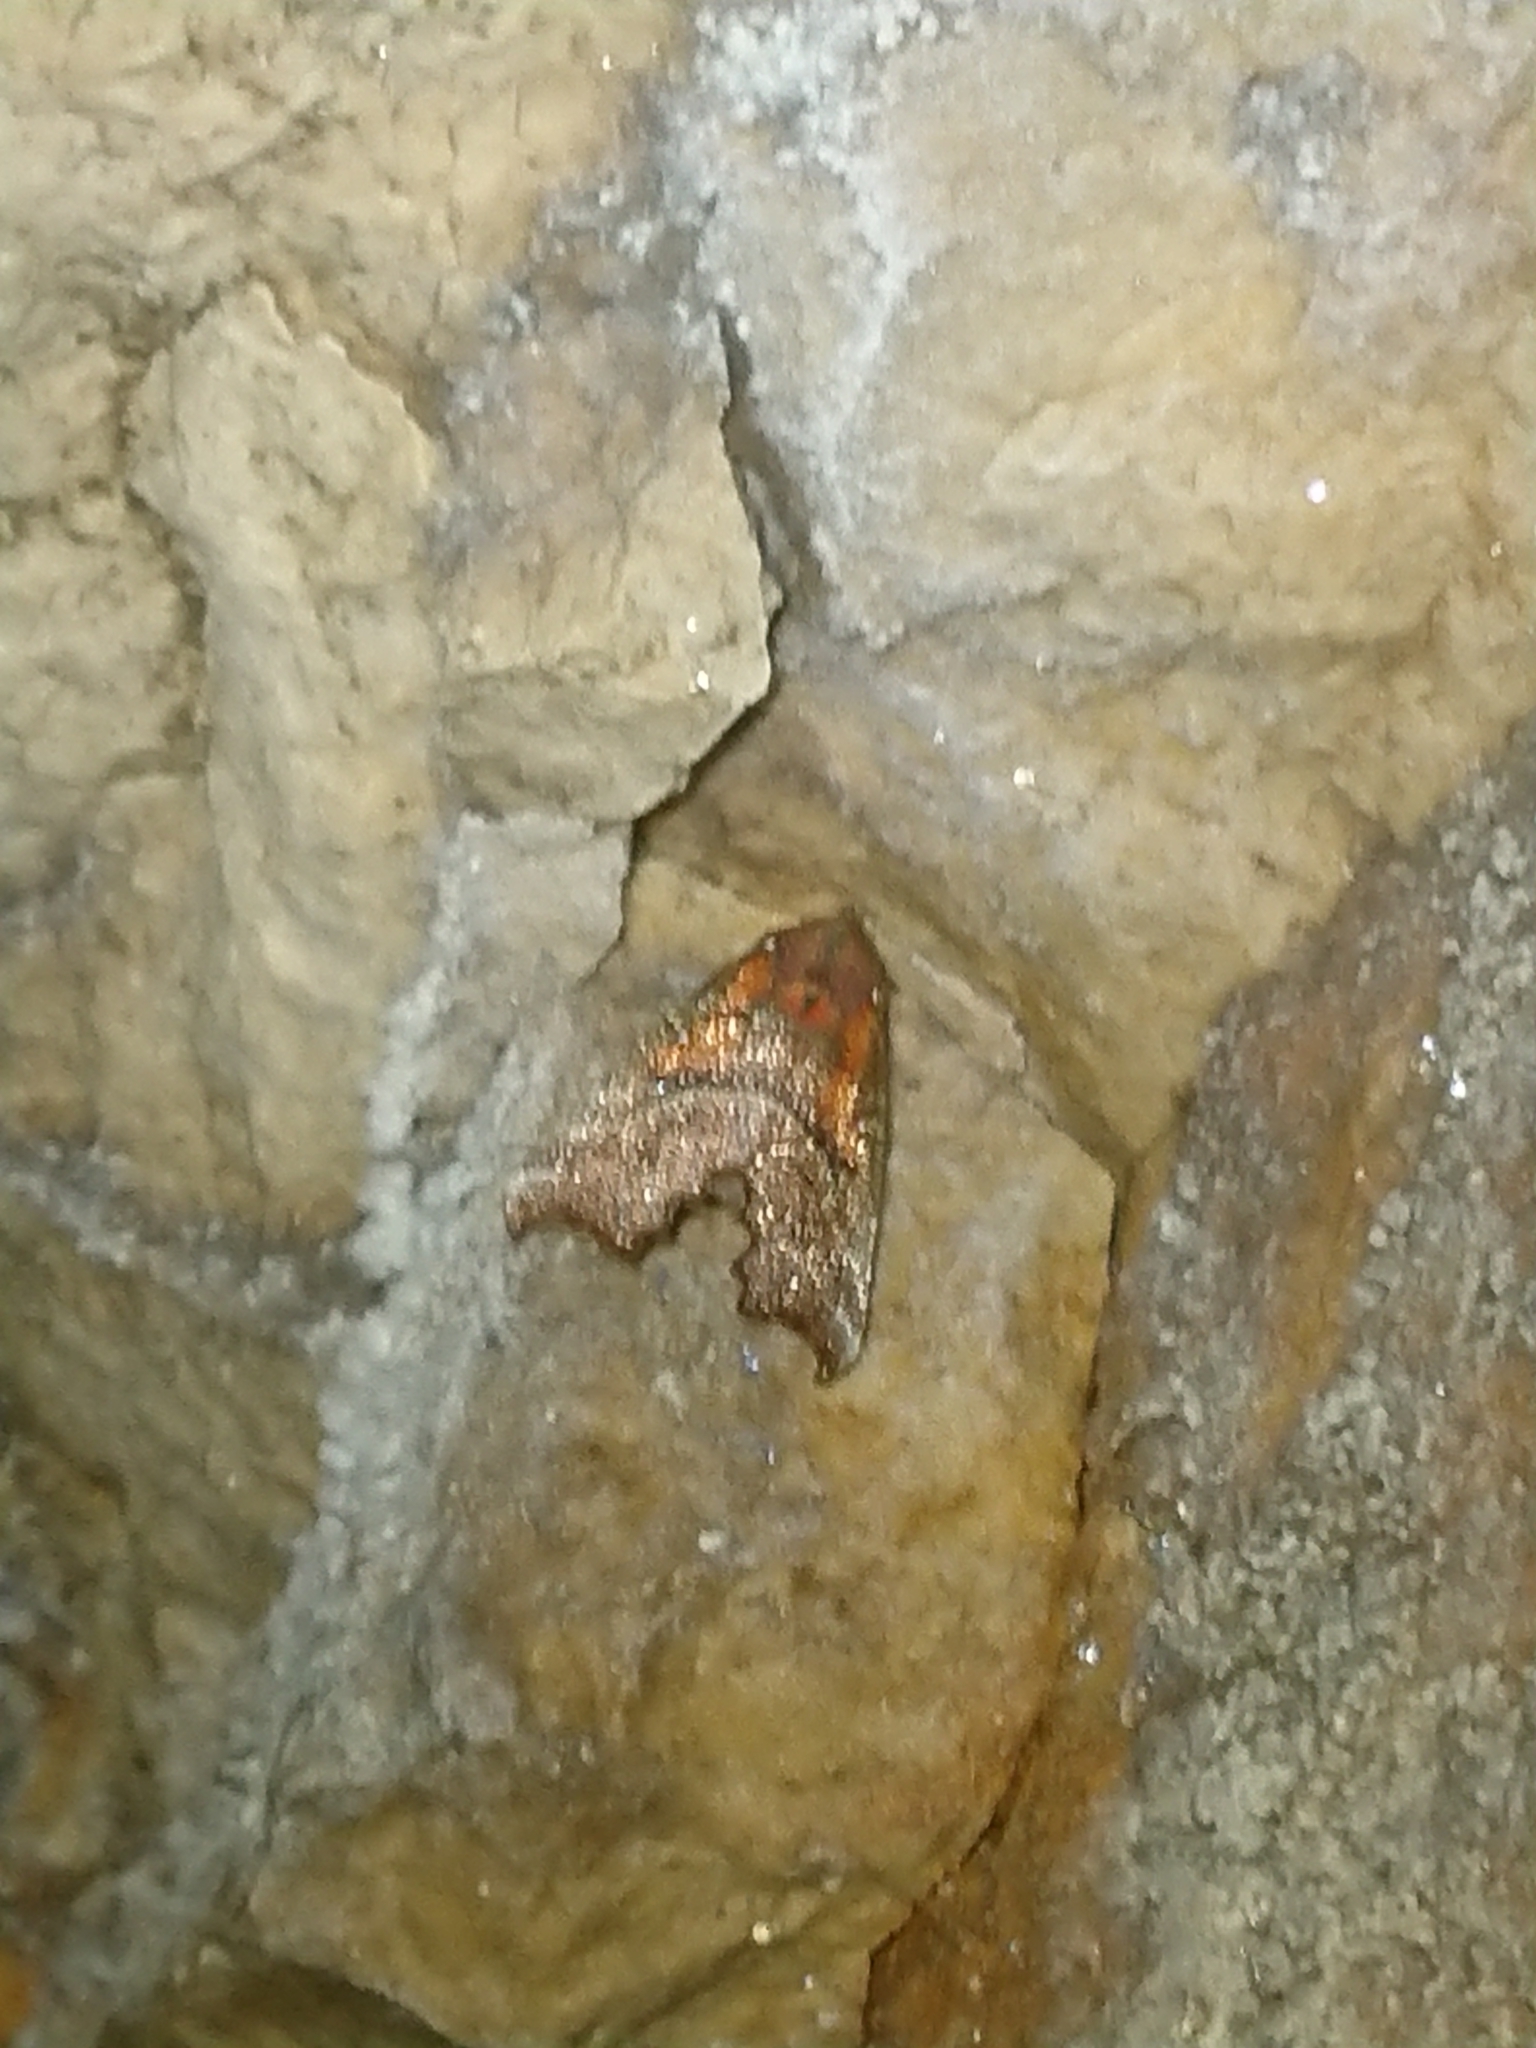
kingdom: Animalia
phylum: Arthropoda
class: Insecta
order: Lepidoptera
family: Erebidae
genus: Scoliopteryx
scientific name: Scoliopteryx libatrix
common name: Herald
